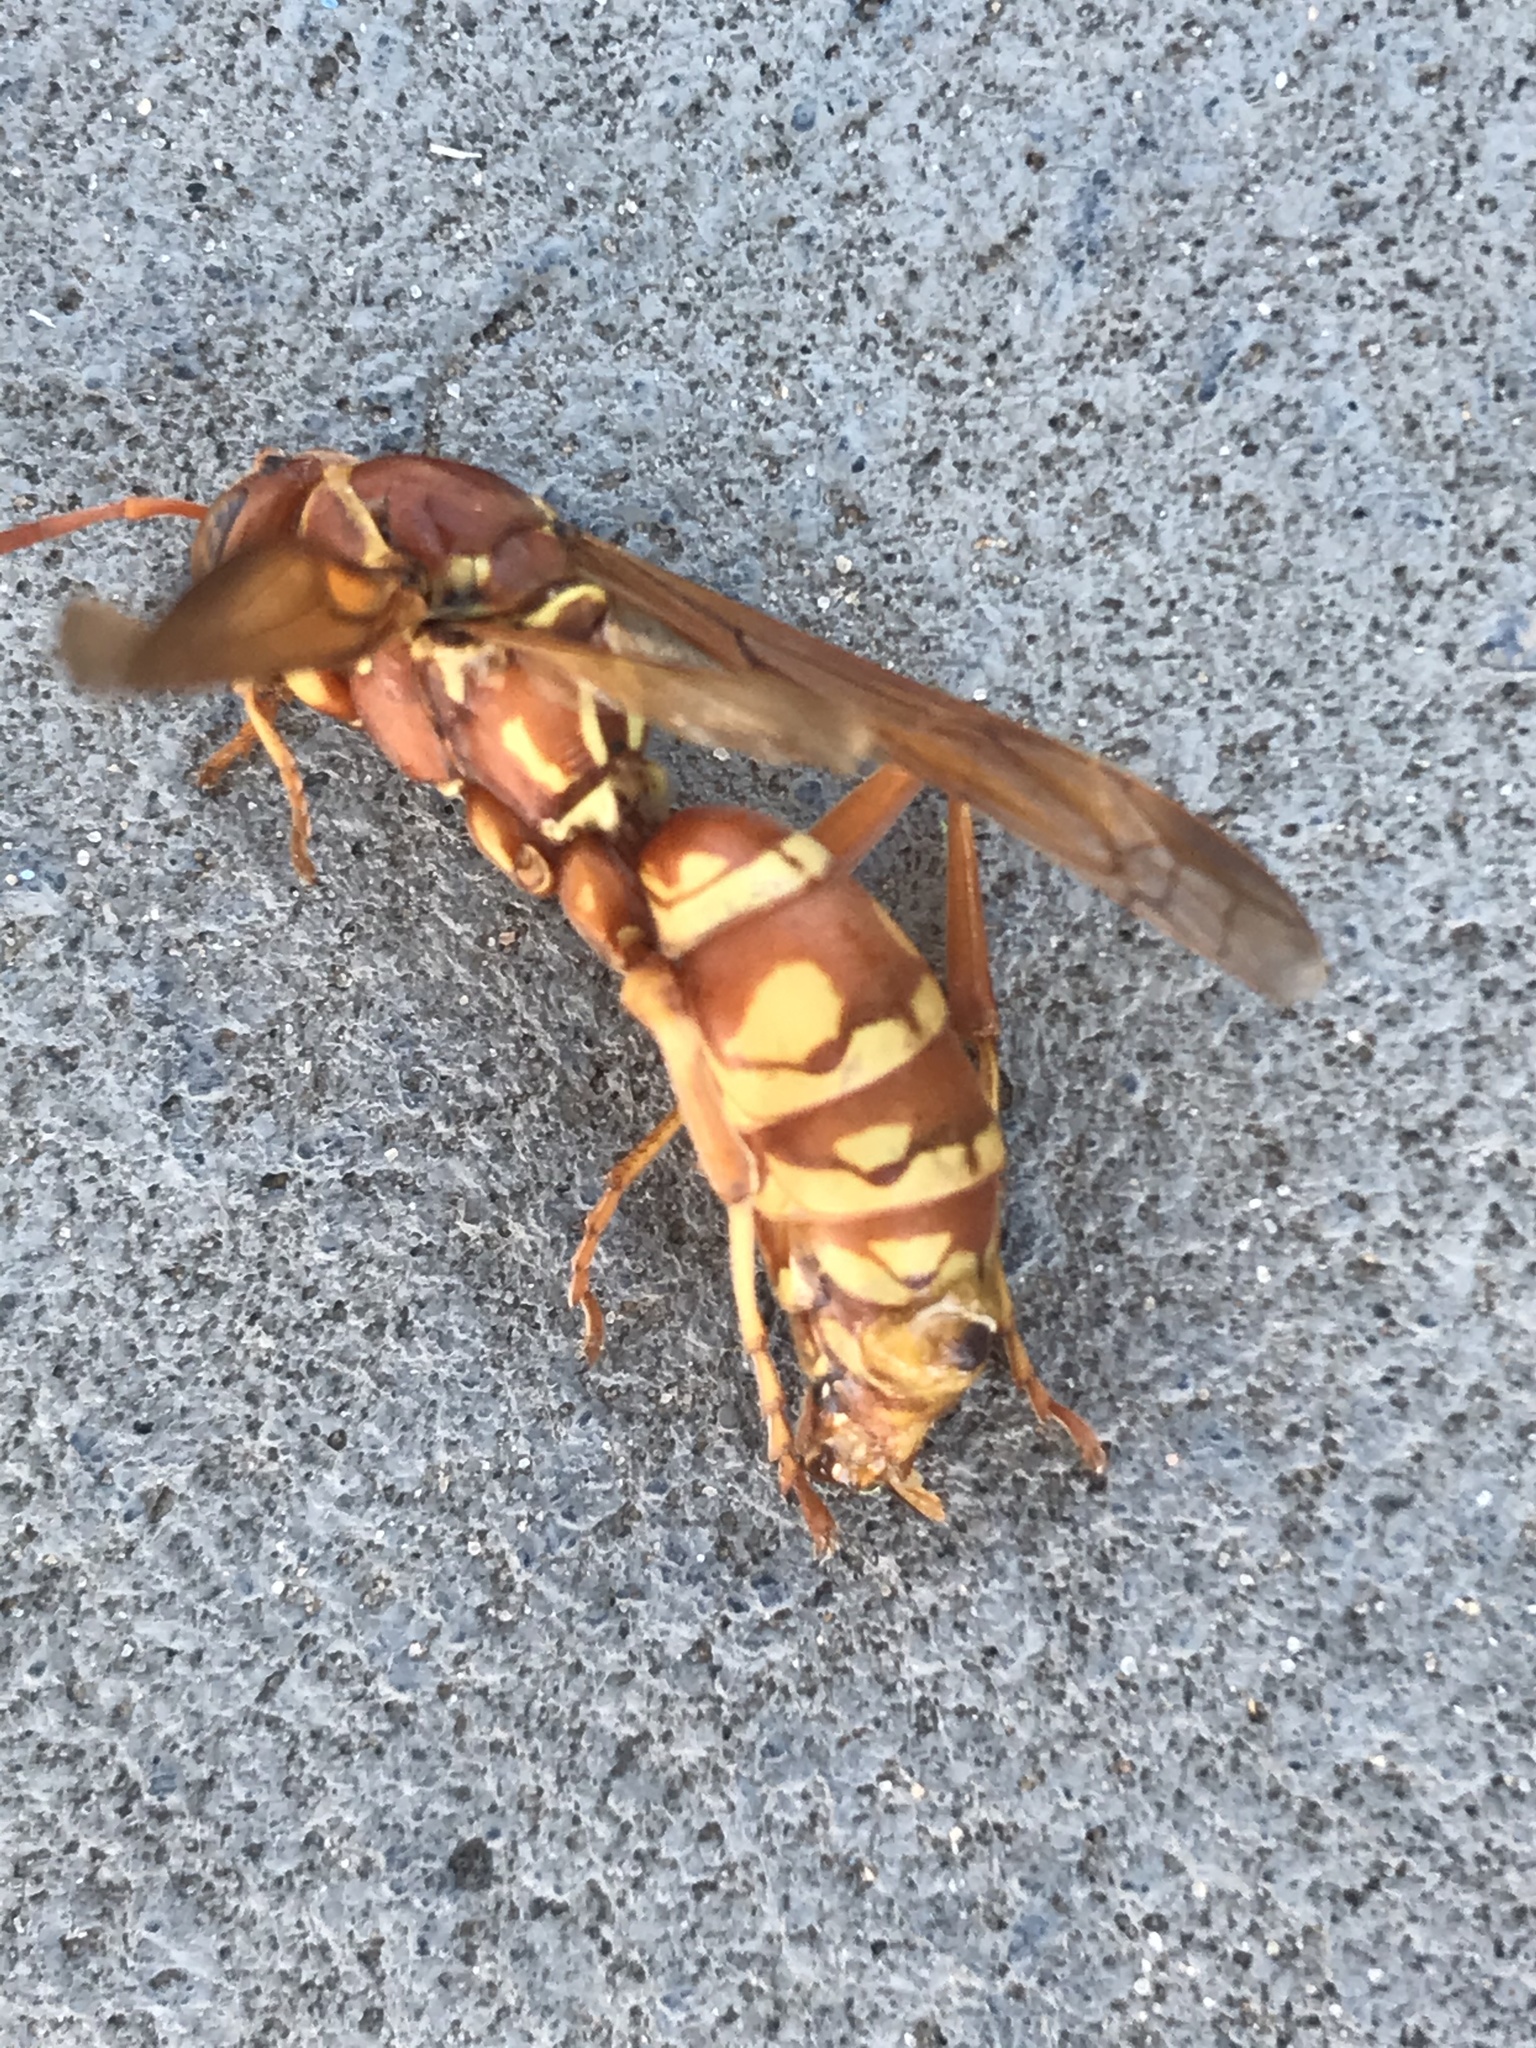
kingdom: Animalia
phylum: Arthropoda
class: Insecta
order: Hymenoptera
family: Eumenidae
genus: Polistes
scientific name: Polistes apachus
